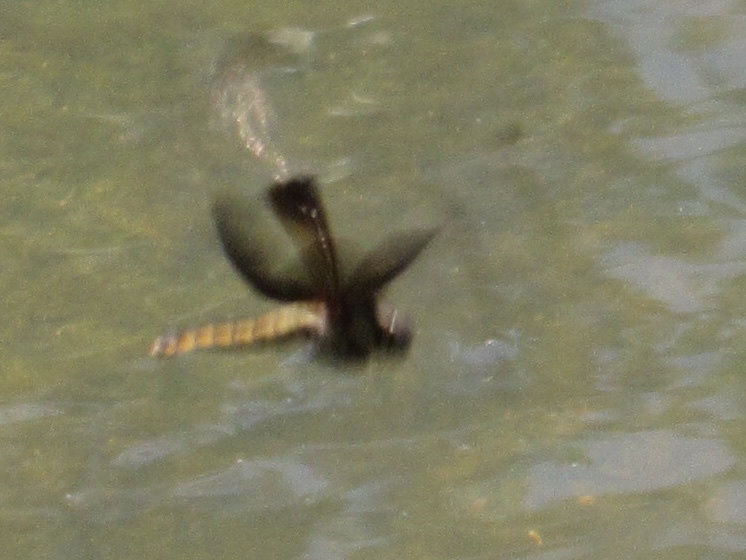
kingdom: Animalia
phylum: Arthropoda
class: Insecta
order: Odonata
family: Libellulidae
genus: Libellula
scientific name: Libellula luctuosa
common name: Widow skimmer
